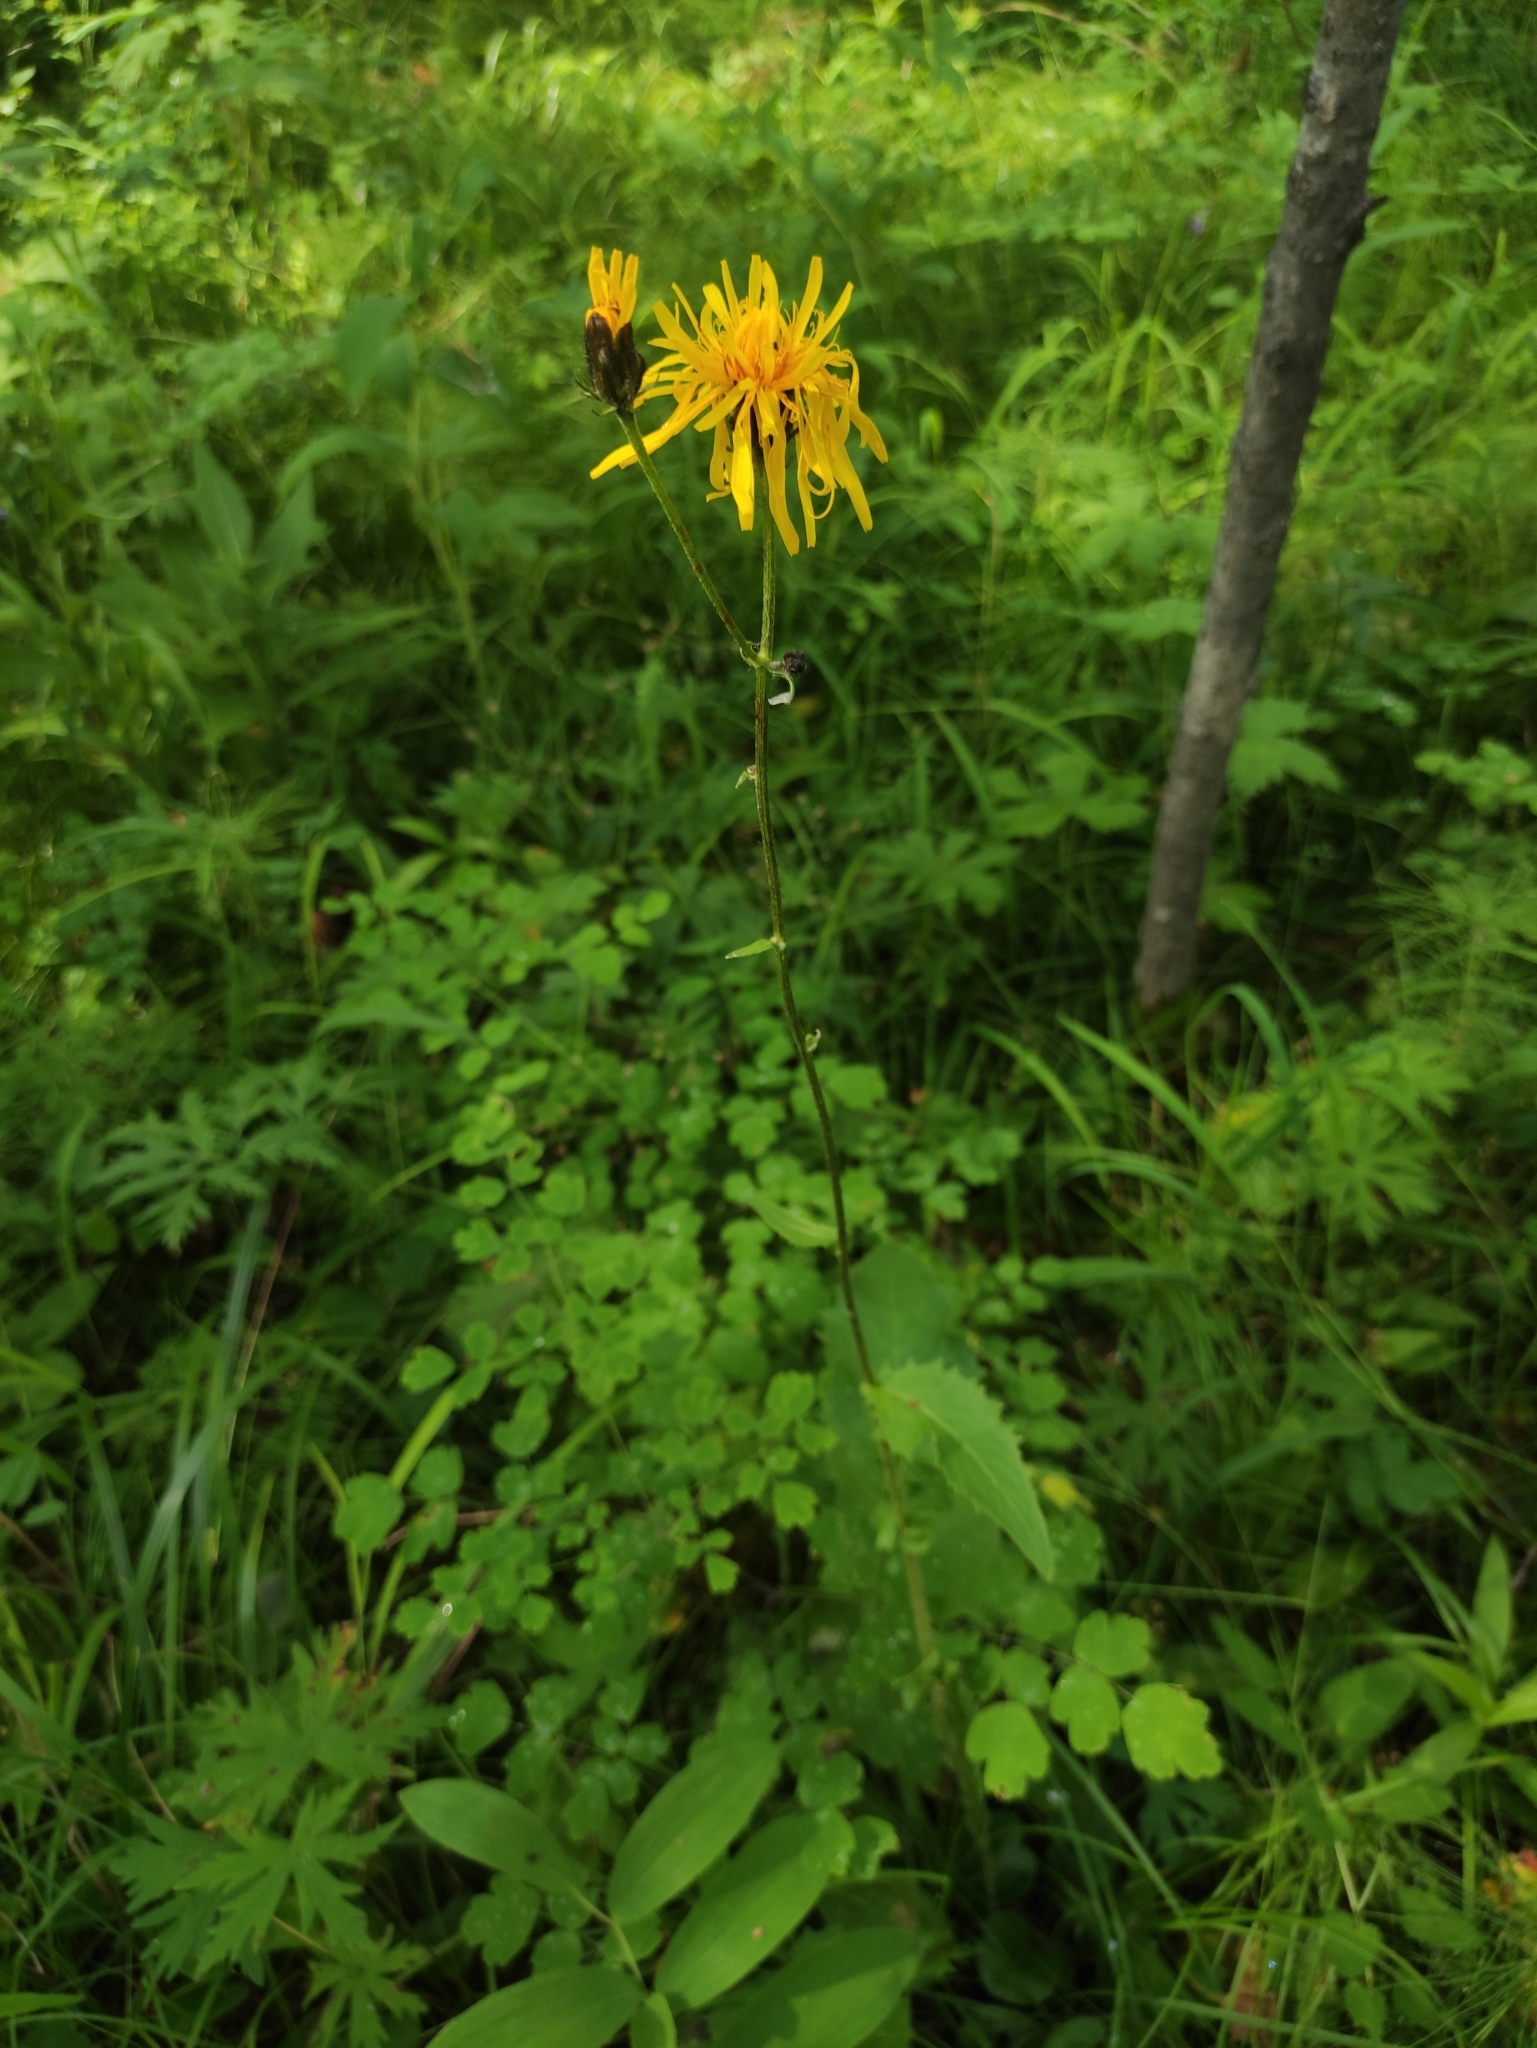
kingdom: Plantae
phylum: Tracheophyta
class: Magnoliopsida
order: Asterales
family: Asteraceae
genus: Crepis
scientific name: Crepis sibirica
